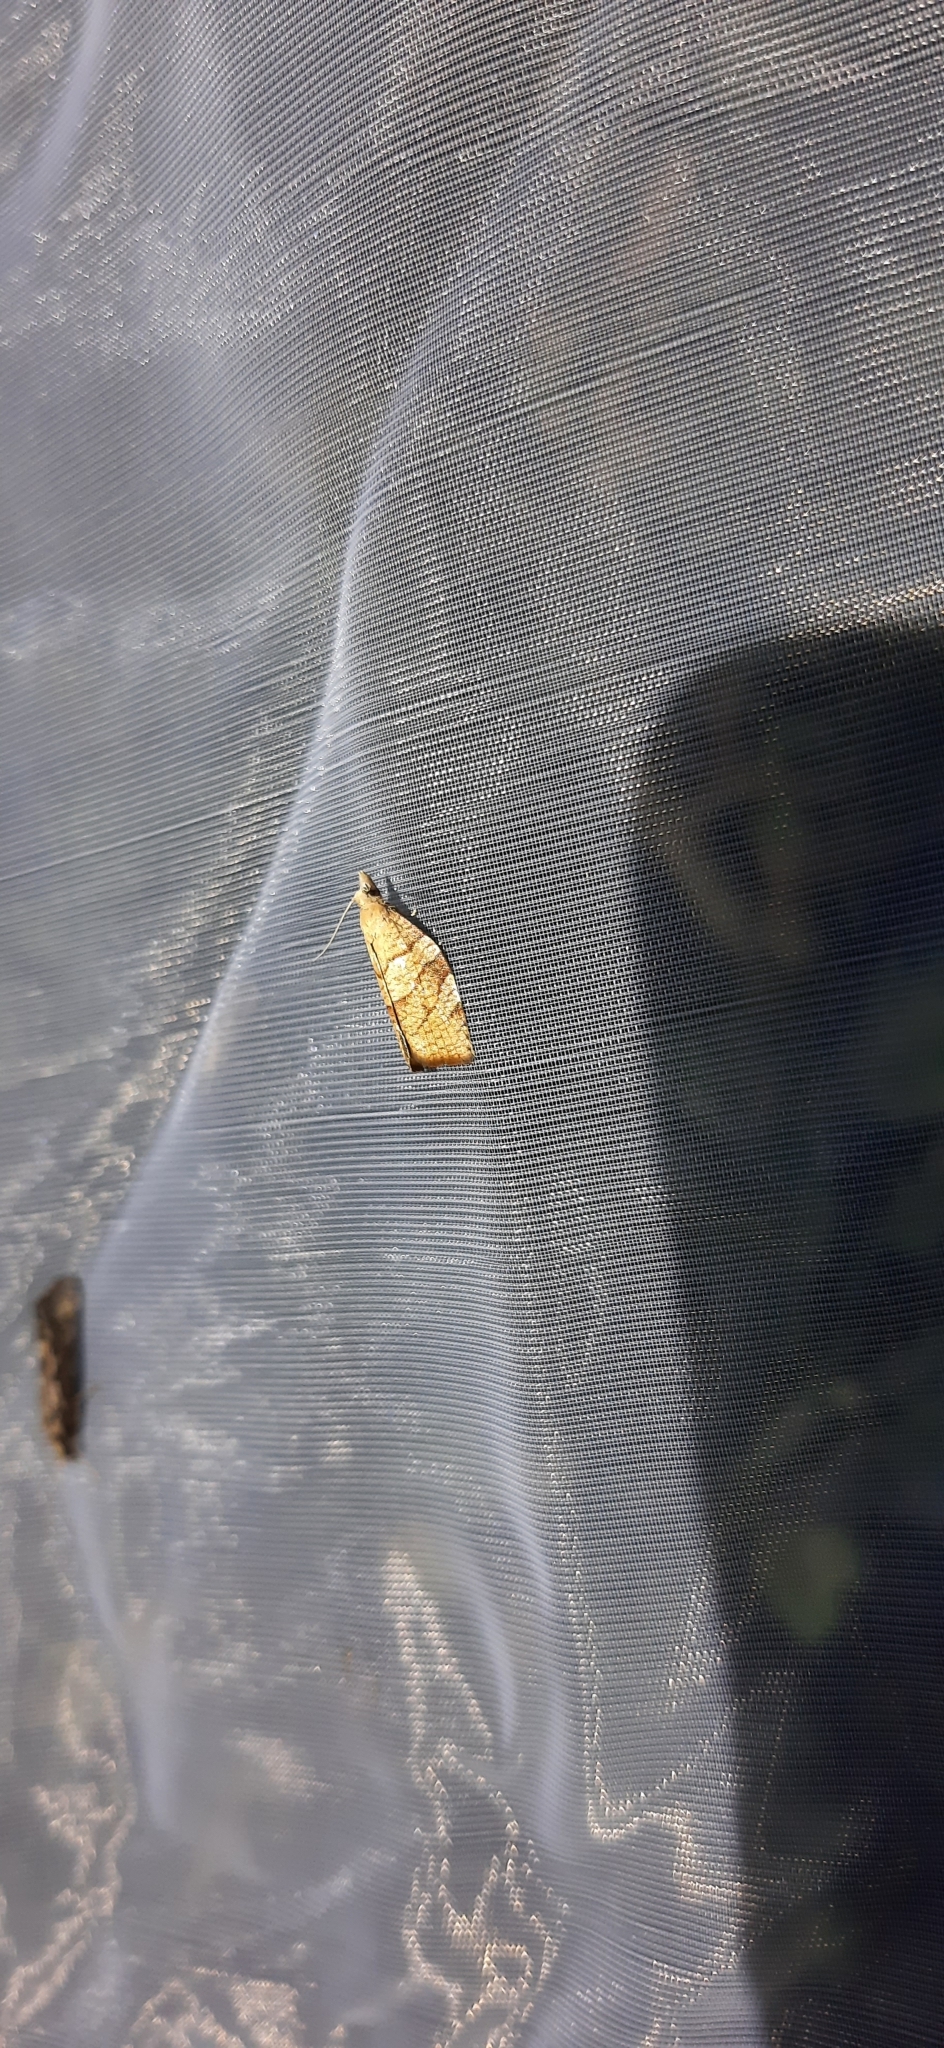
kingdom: Animalia
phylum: Arthropoda
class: Insecta
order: Lepidoptera
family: Tortricidae
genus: Pandemis
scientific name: Pandemis corylana
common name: Chequered fruit-tree tortrix
